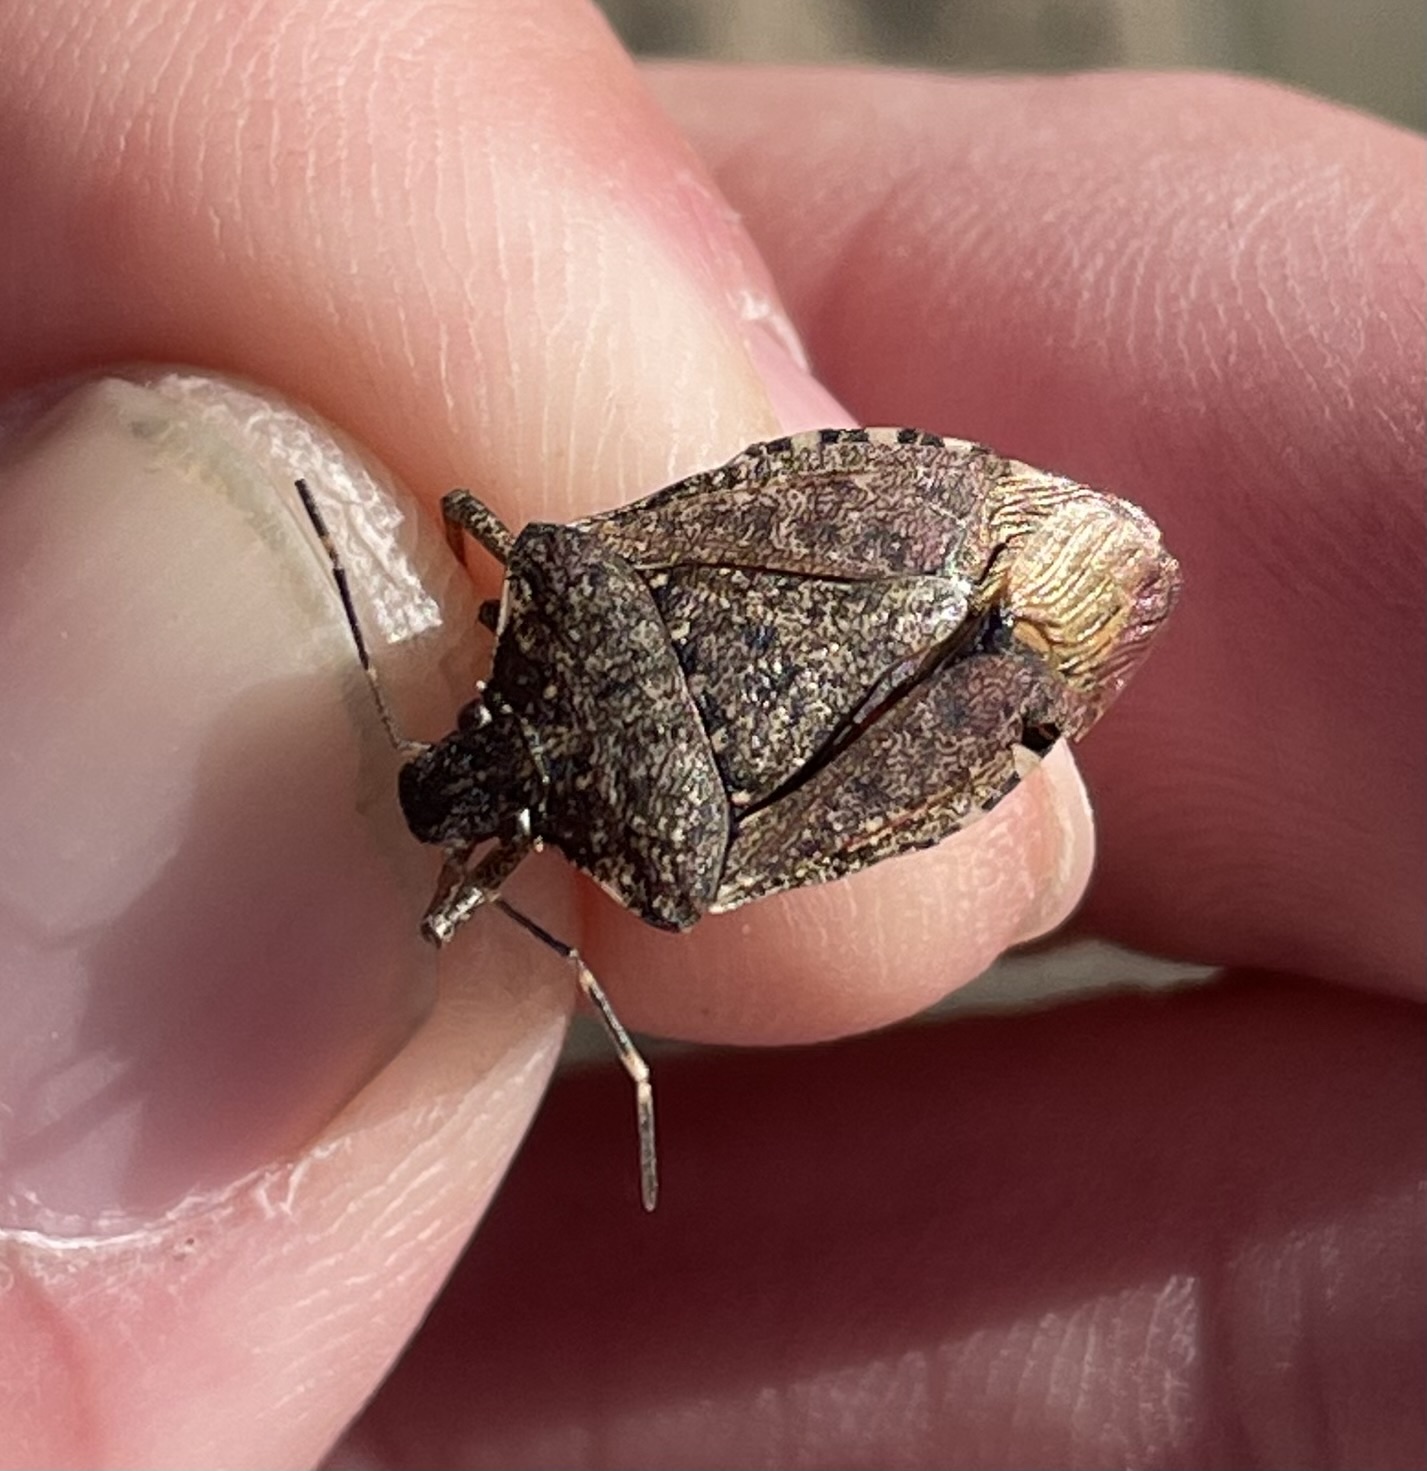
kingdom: Animalia
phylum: Arthropoda
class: Insecta
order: Hemiptera
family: Pentatomidae
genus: Halyomorpha
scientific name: Halyomorpha halys
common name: Brown marmorated stink bug
